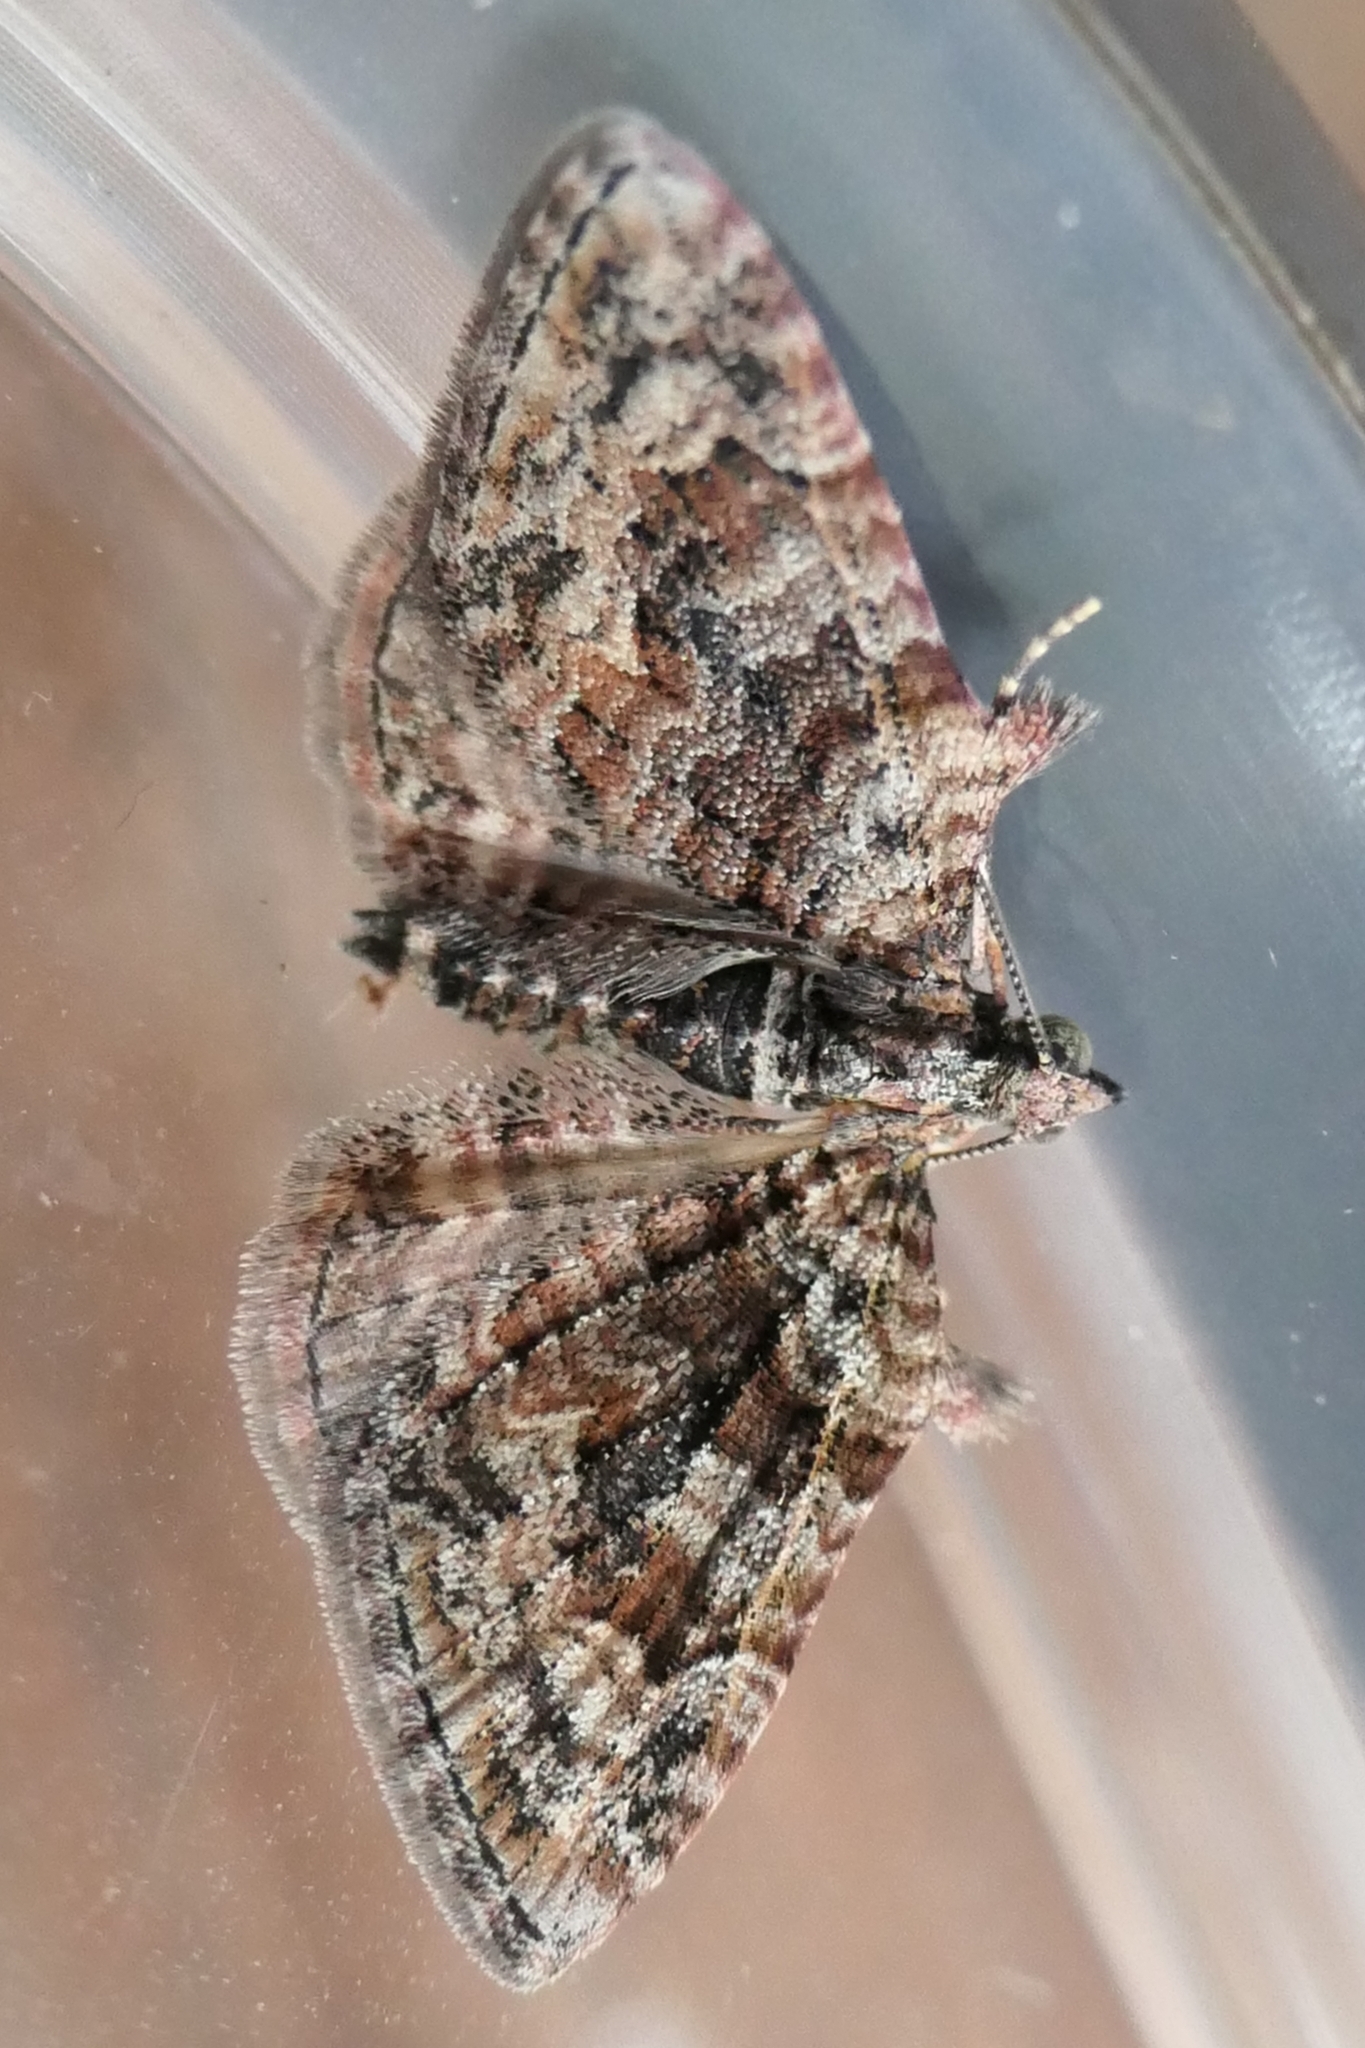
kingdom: Animalia
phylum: Arthropoda
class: Insecta
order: Lepidoptera
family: Geometridae
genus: Phrissogonus
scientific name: Phrissogonus laticostata
